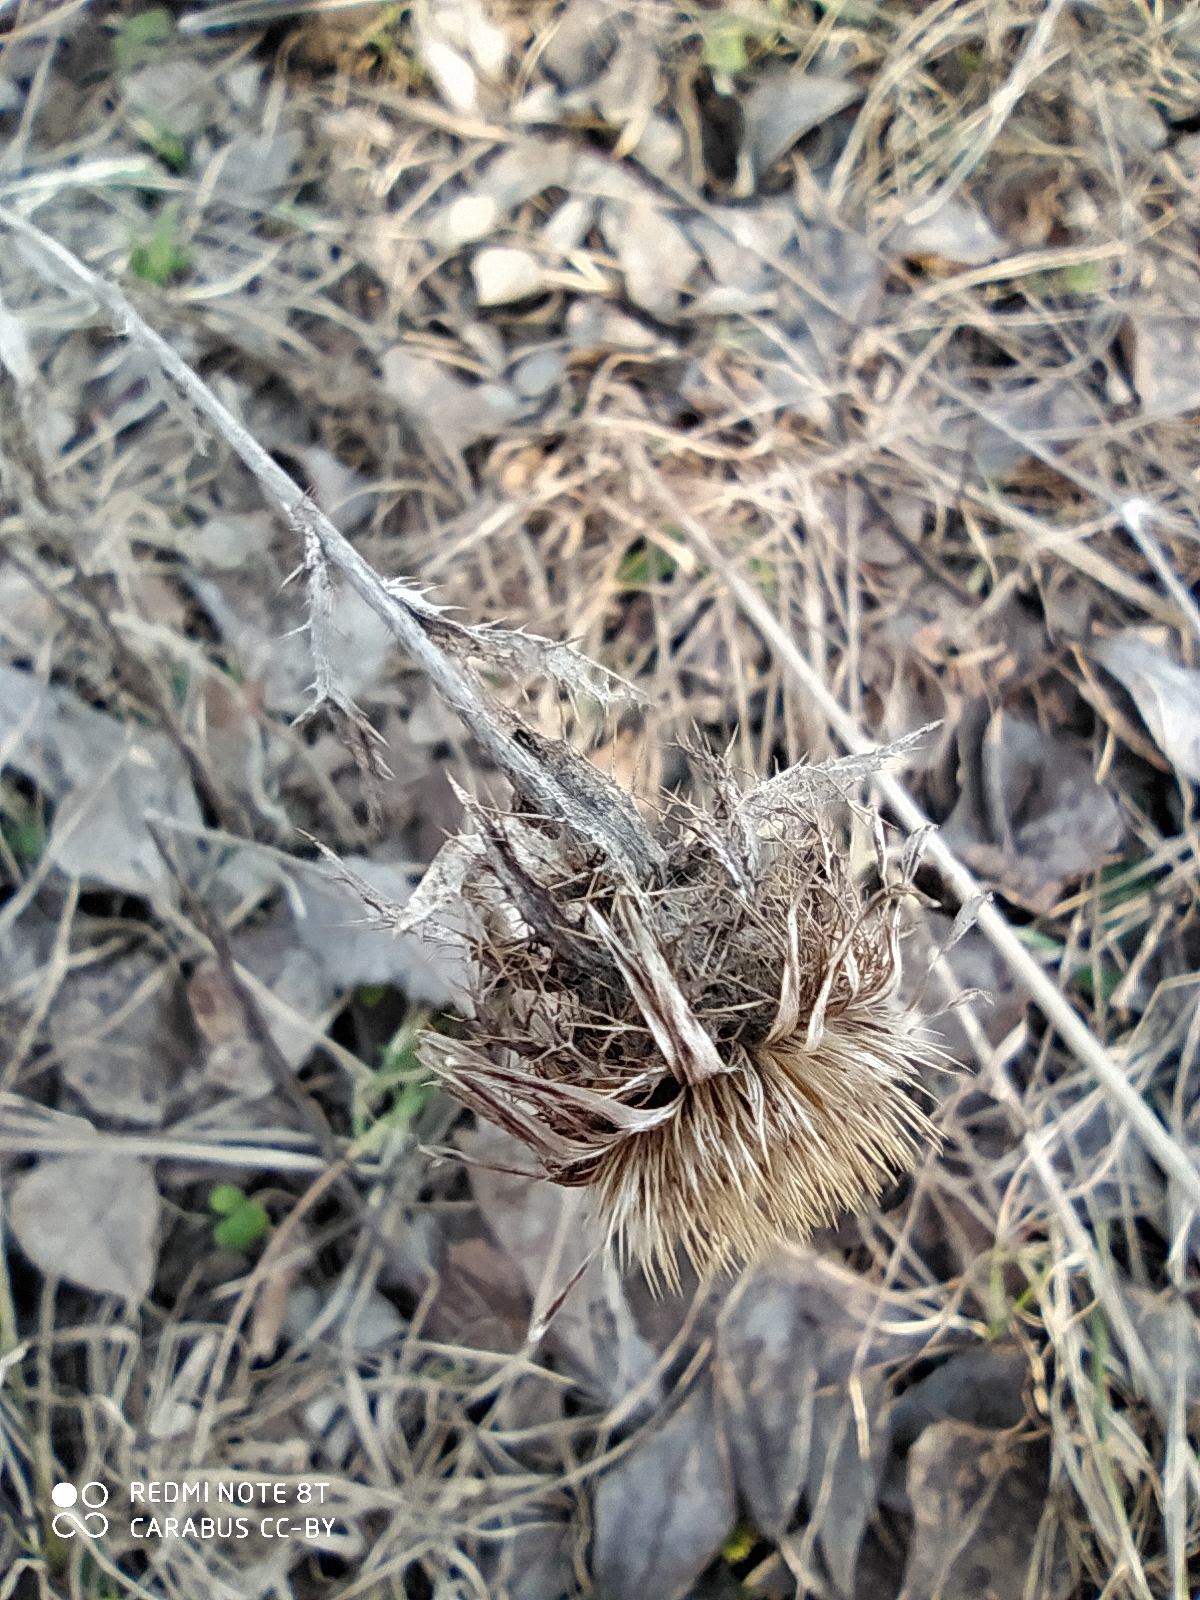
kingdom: Plantae
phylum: Tracheophyta
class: Magnoliopsida
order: Asterales
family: Asteraceae
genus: Carlina
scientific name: Carlina biebersteinii
